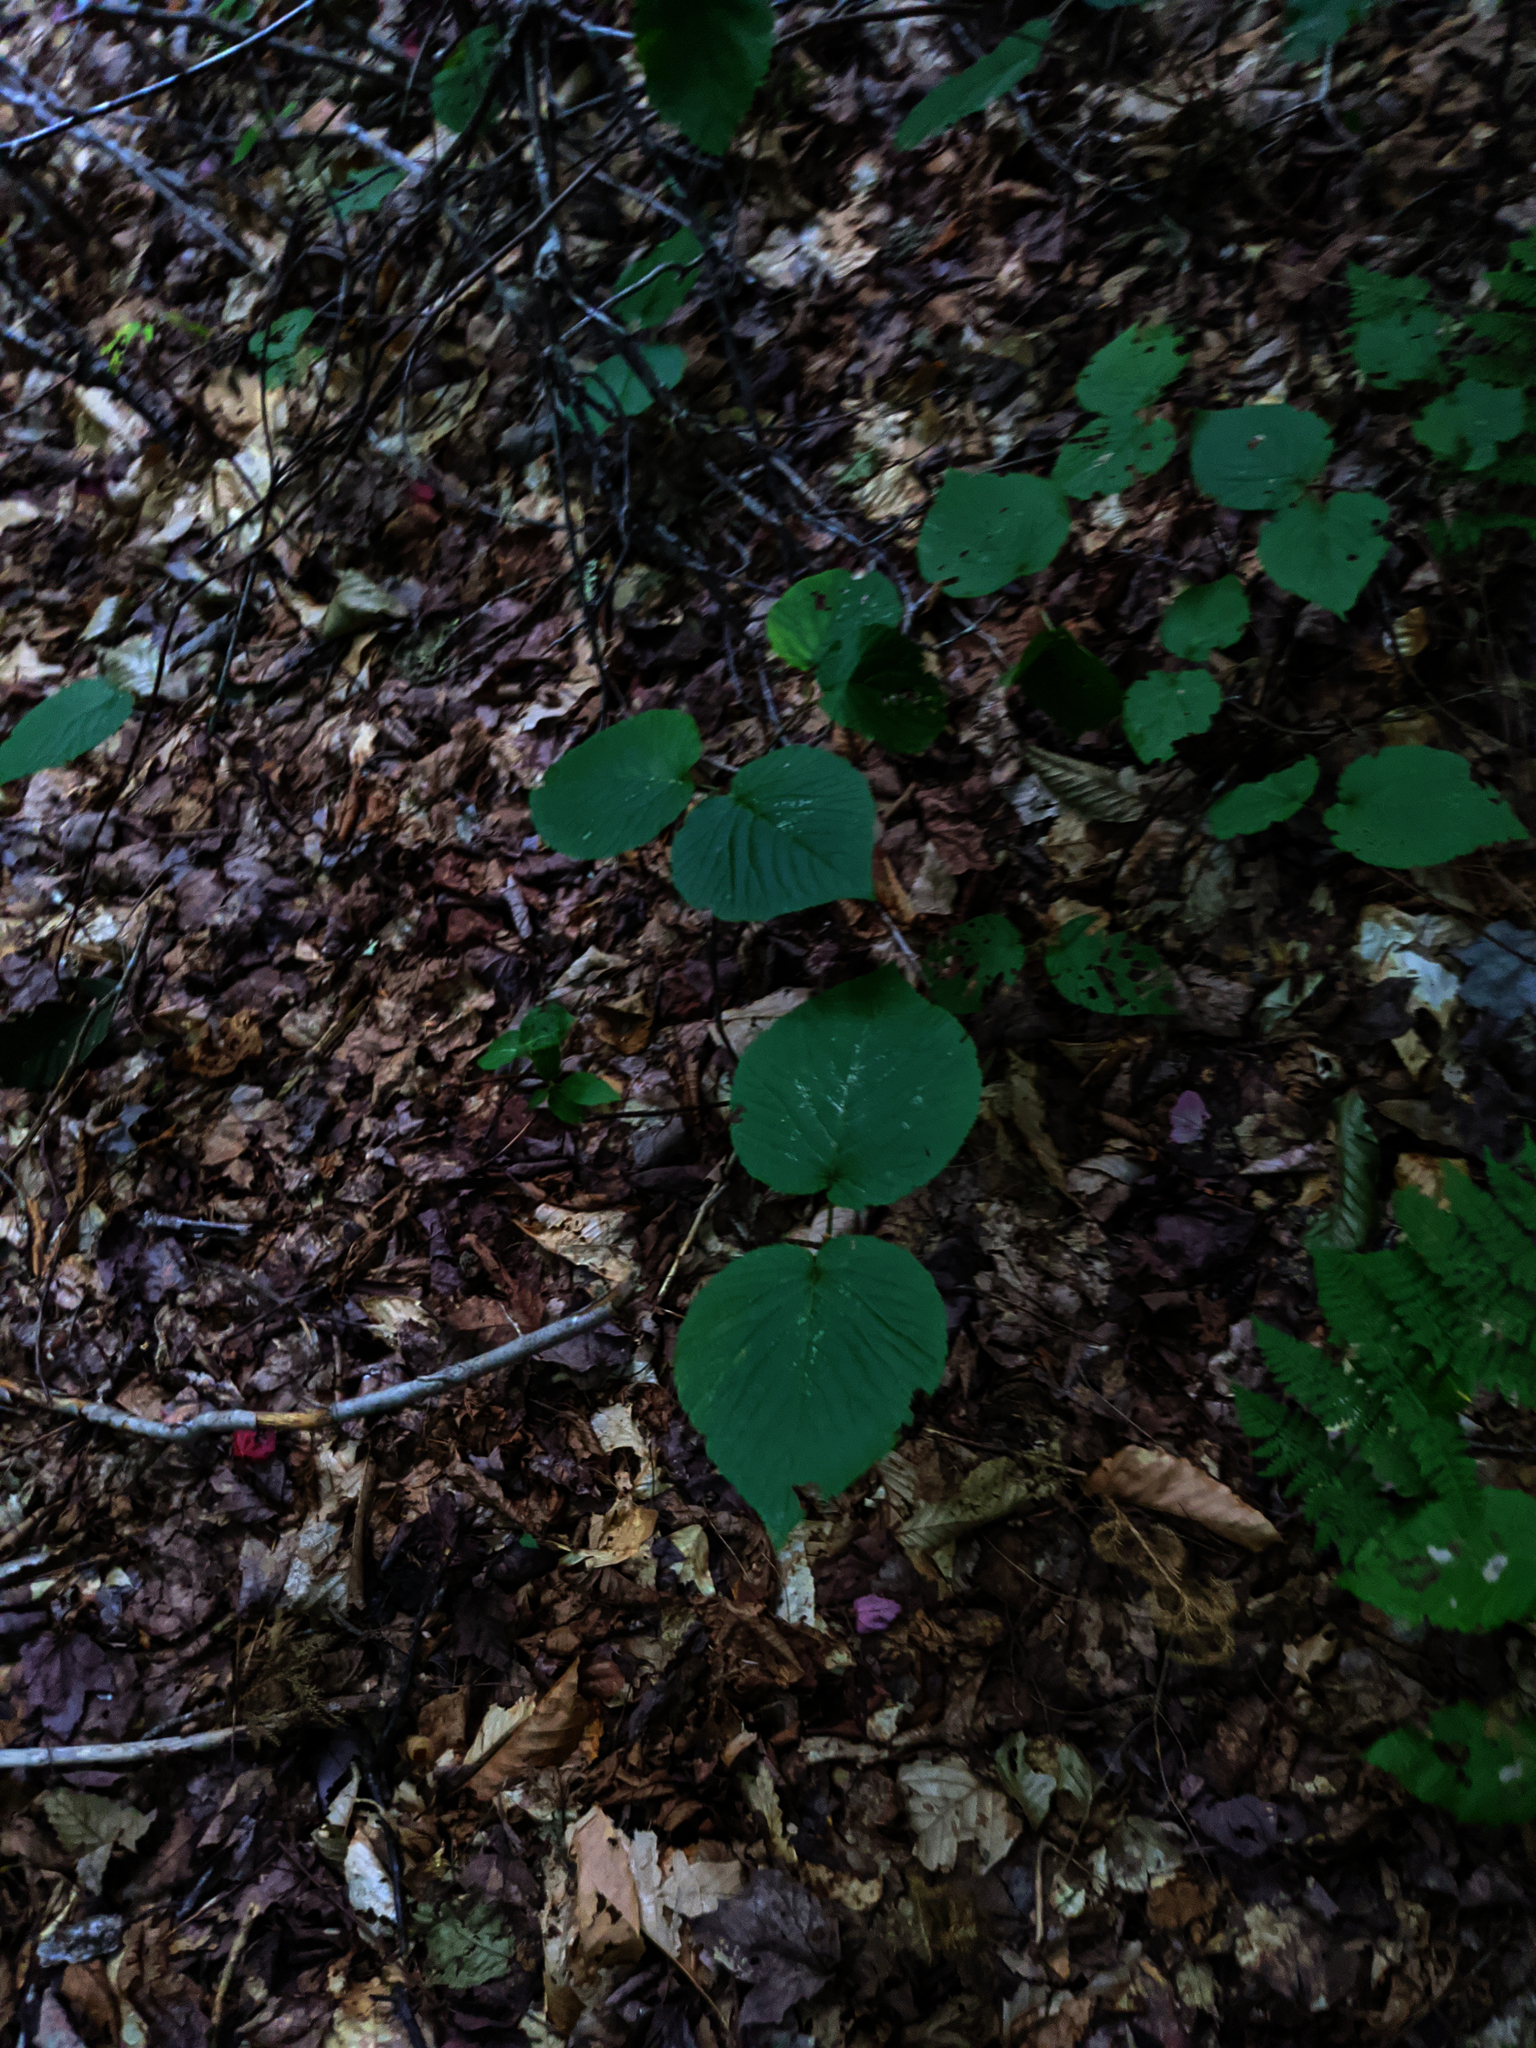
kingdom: Plantae
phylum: Tracheophyta
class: Magnoliopsida
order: Dipsacales
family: Viburnaceae
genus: Viburnum
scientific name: Viburnum lantanoides
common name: Hobblebush
